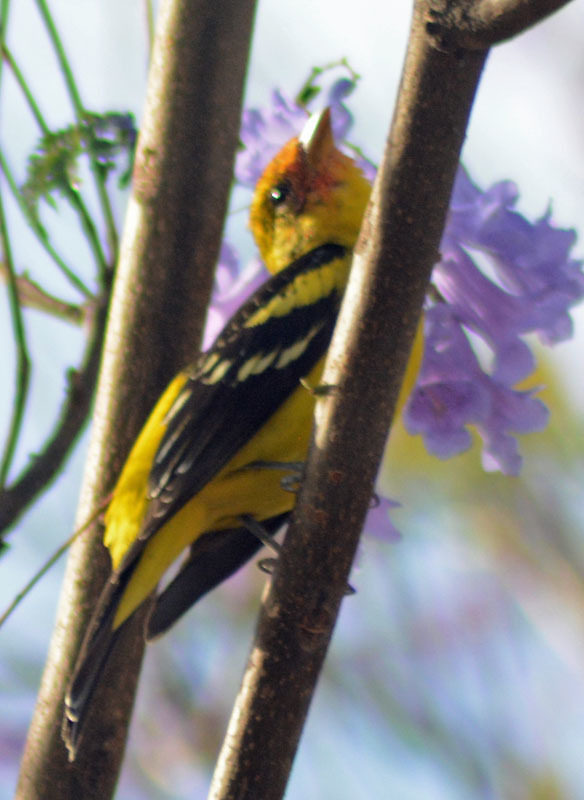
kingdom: Animalia
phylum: Chordata
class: Aves
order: Passeriformes
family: Cardinalidae
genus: Piranga
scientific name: Piranga ludoviciana
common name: Western tanager
